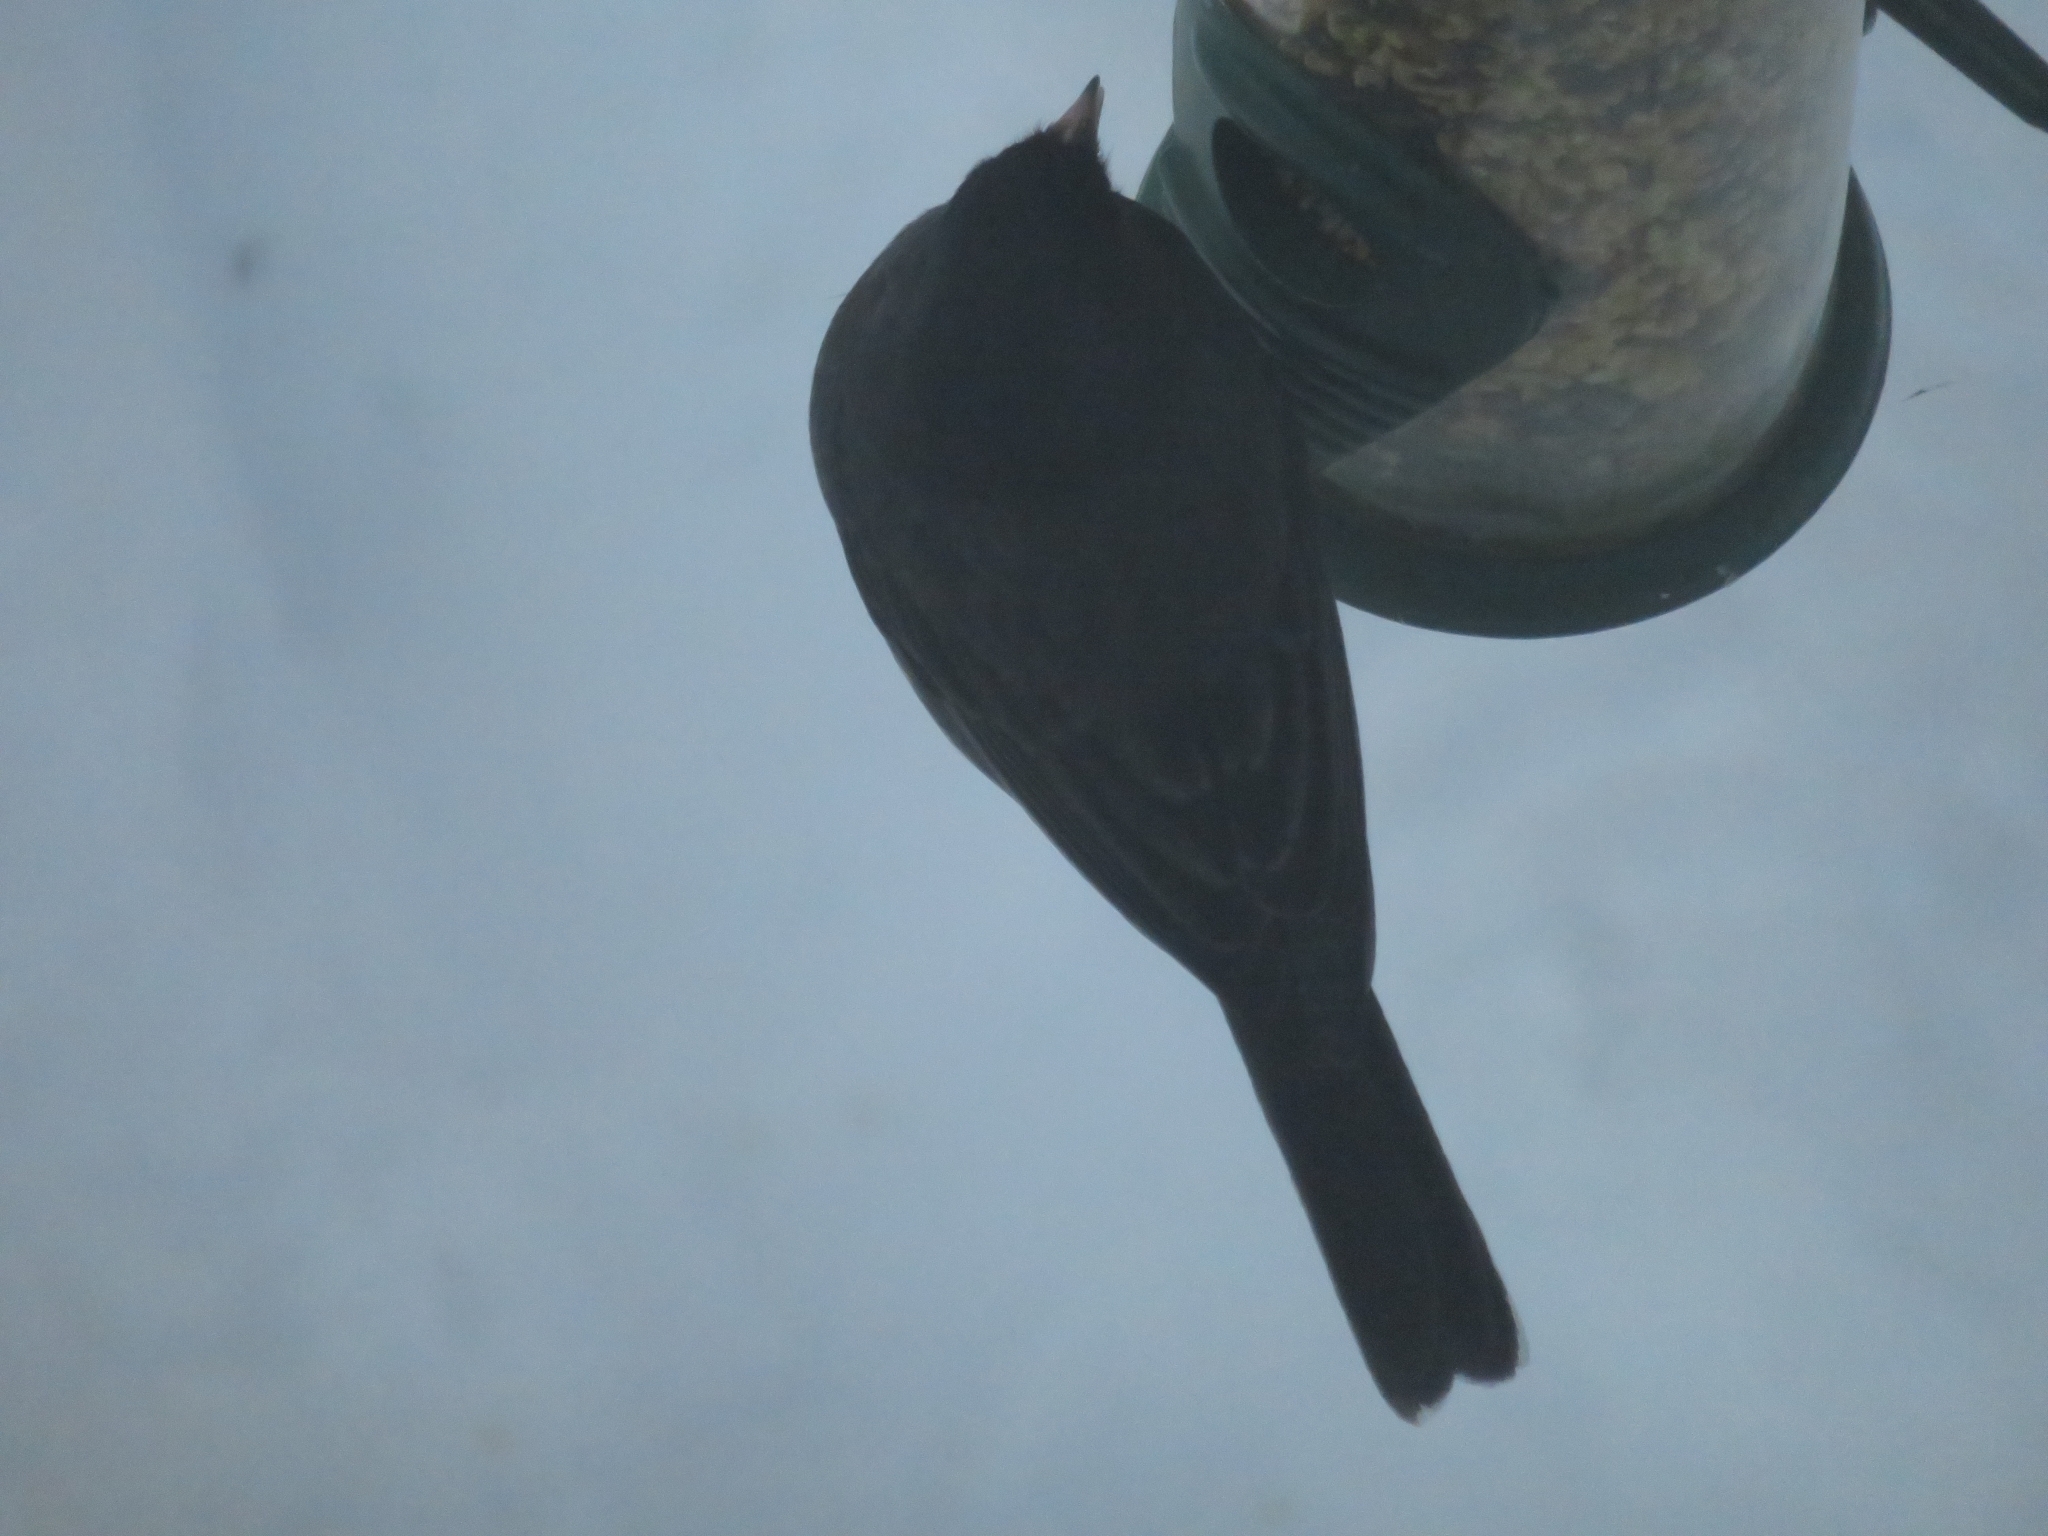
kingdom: Animalia
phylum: Chordata
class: Aves
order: Passeriformes
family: Passerellidae
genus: Junco
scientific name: Junco hyemalis
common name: Dark-eyed junco
